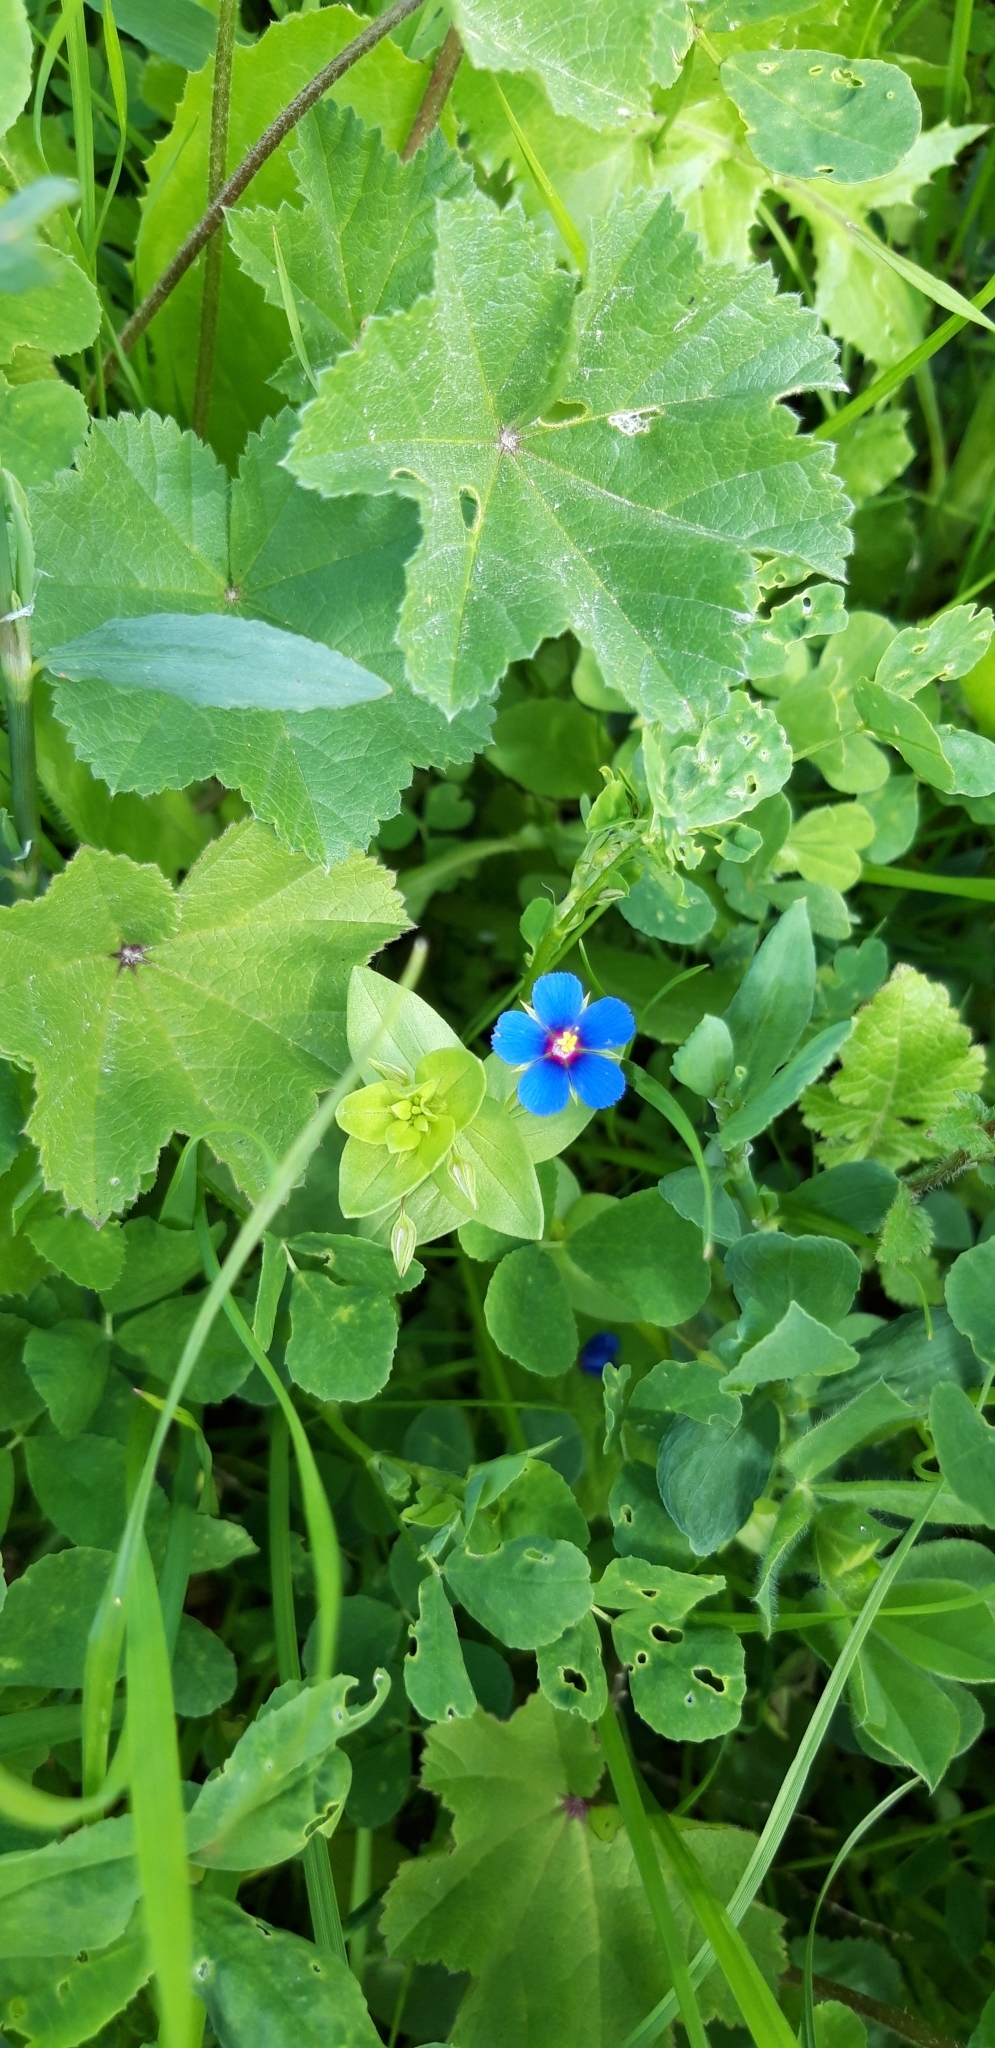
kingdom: Plantae
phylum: Tracheophyta
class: Magnoliopsida
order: Ericales
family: Primulaceae
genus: Lysimachia
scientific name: Lysimachia arvensis
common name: Scarlet pimpernel
